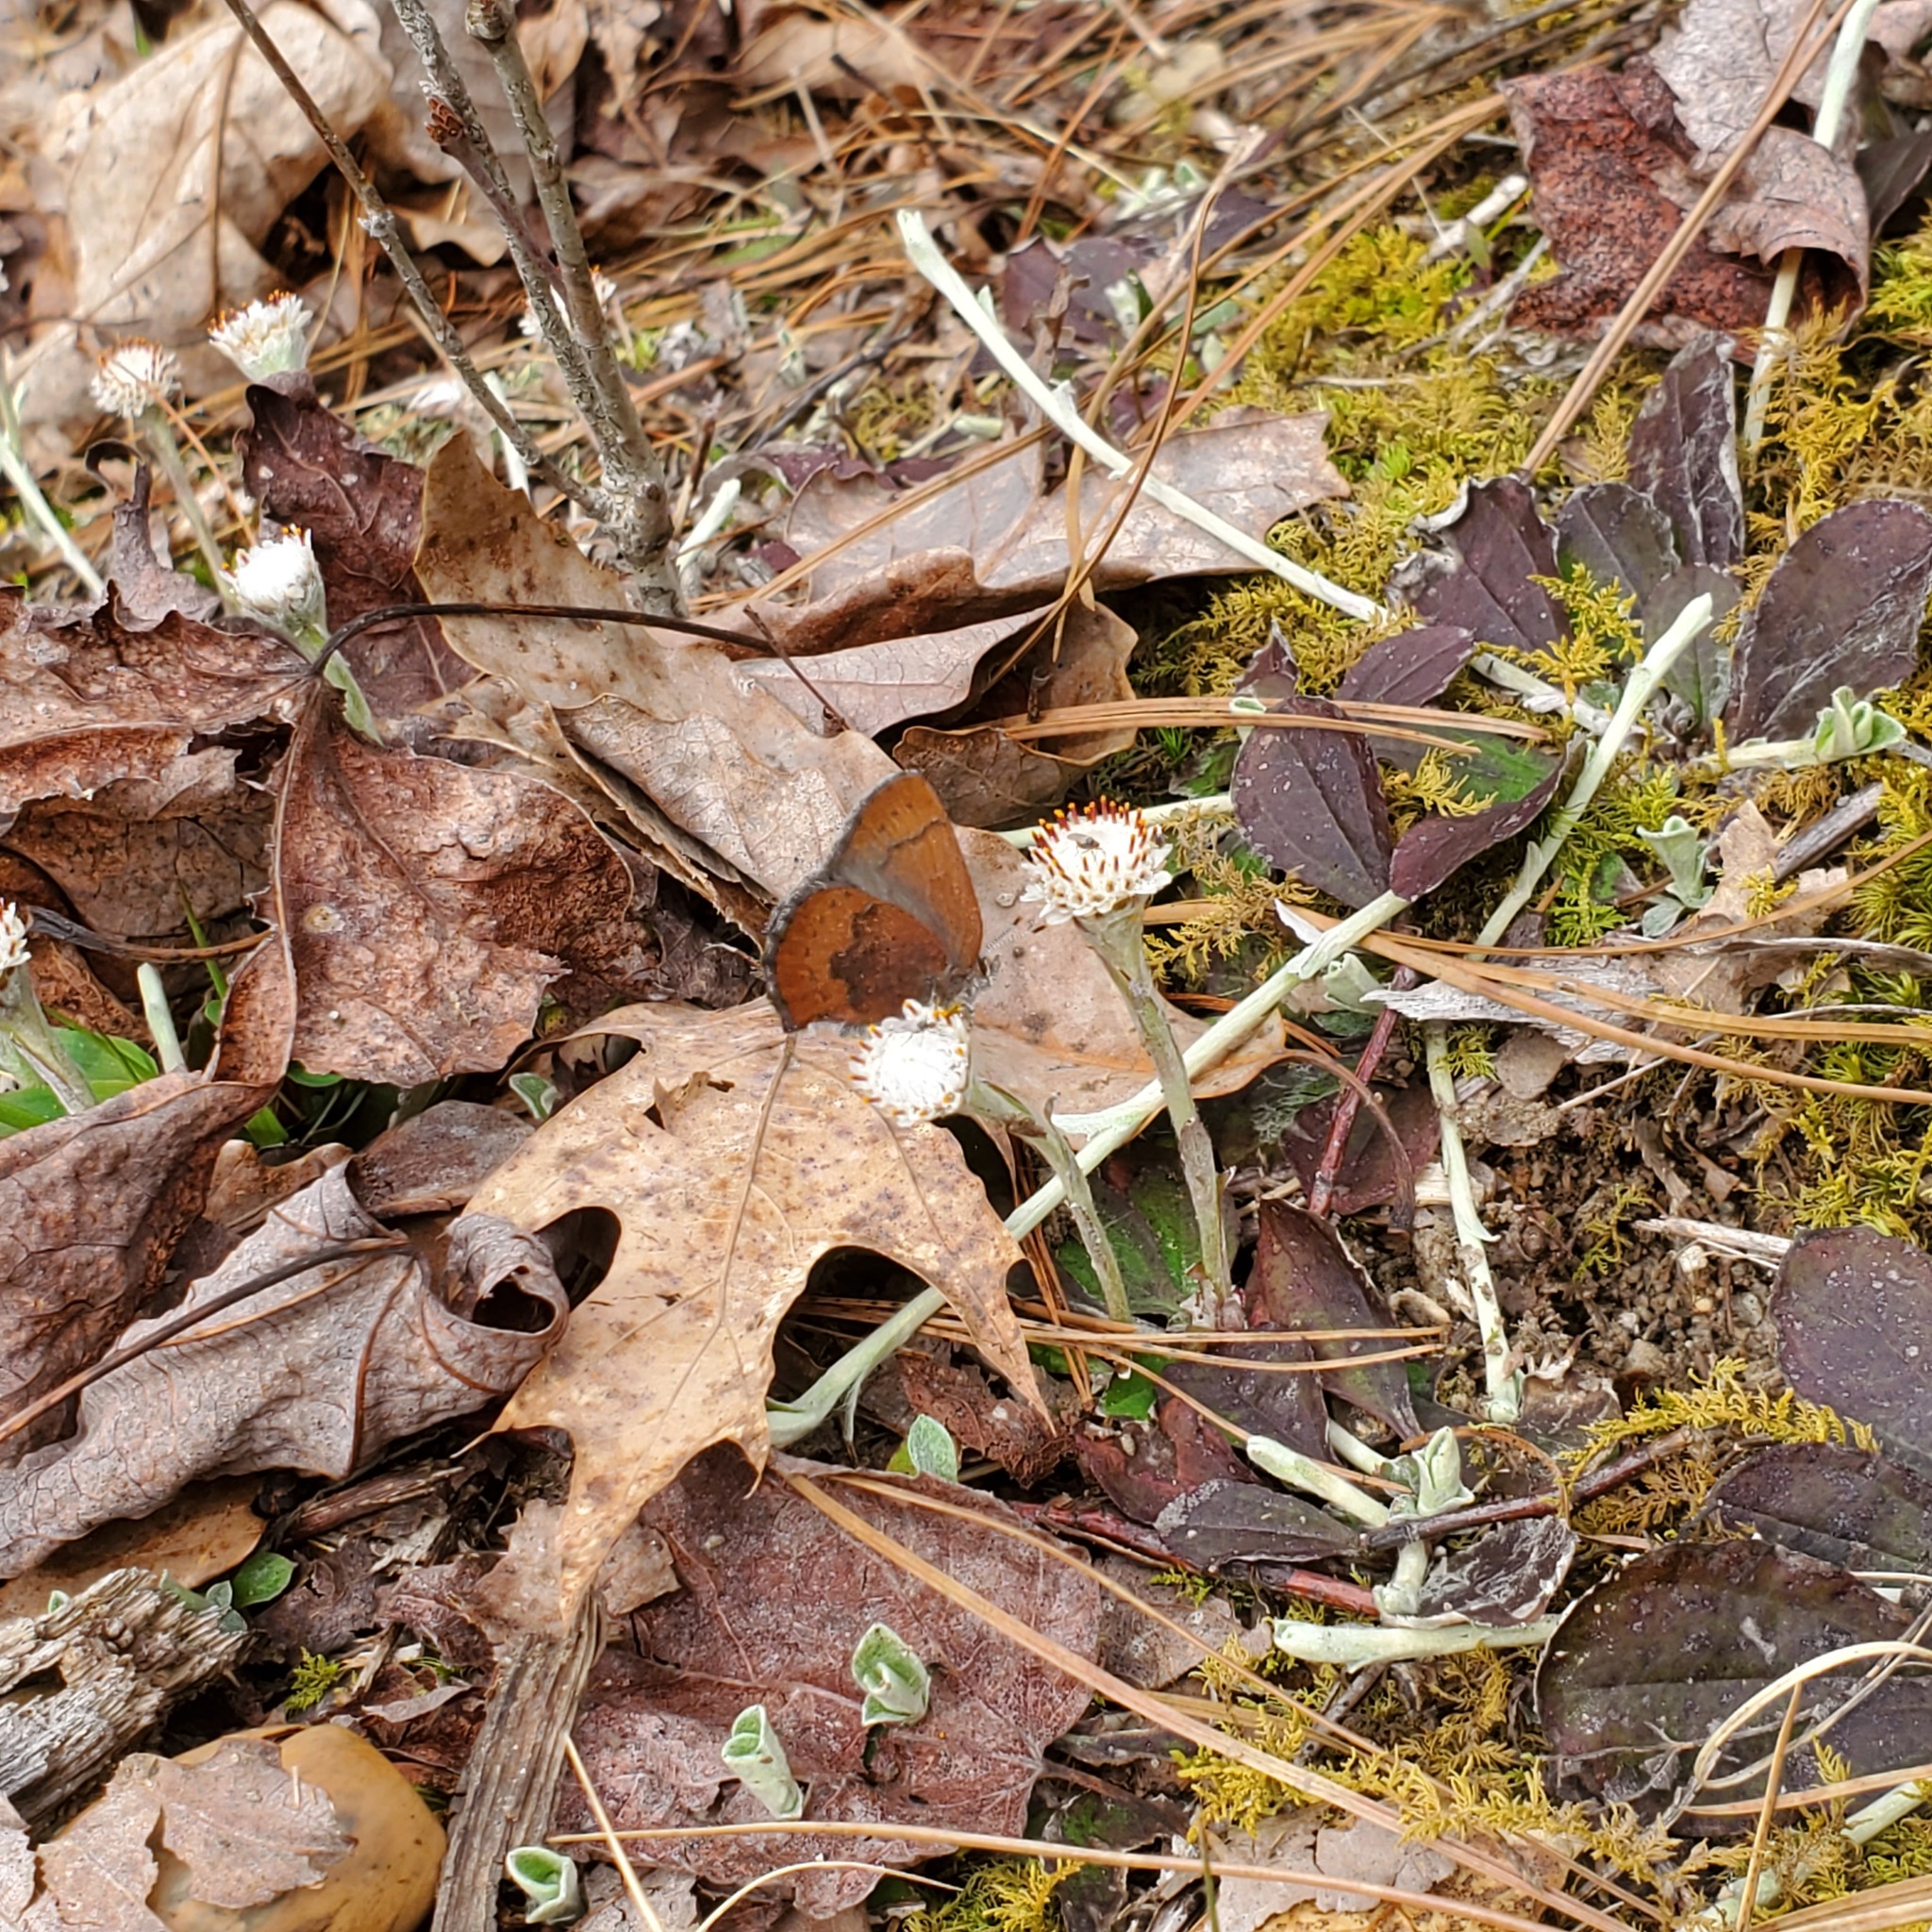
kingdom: Animalia
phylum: Arthropoda
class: Insecta
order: Lepidoptera
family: Lycaenidae
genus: Incisalia
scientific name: Incisalia irioides
